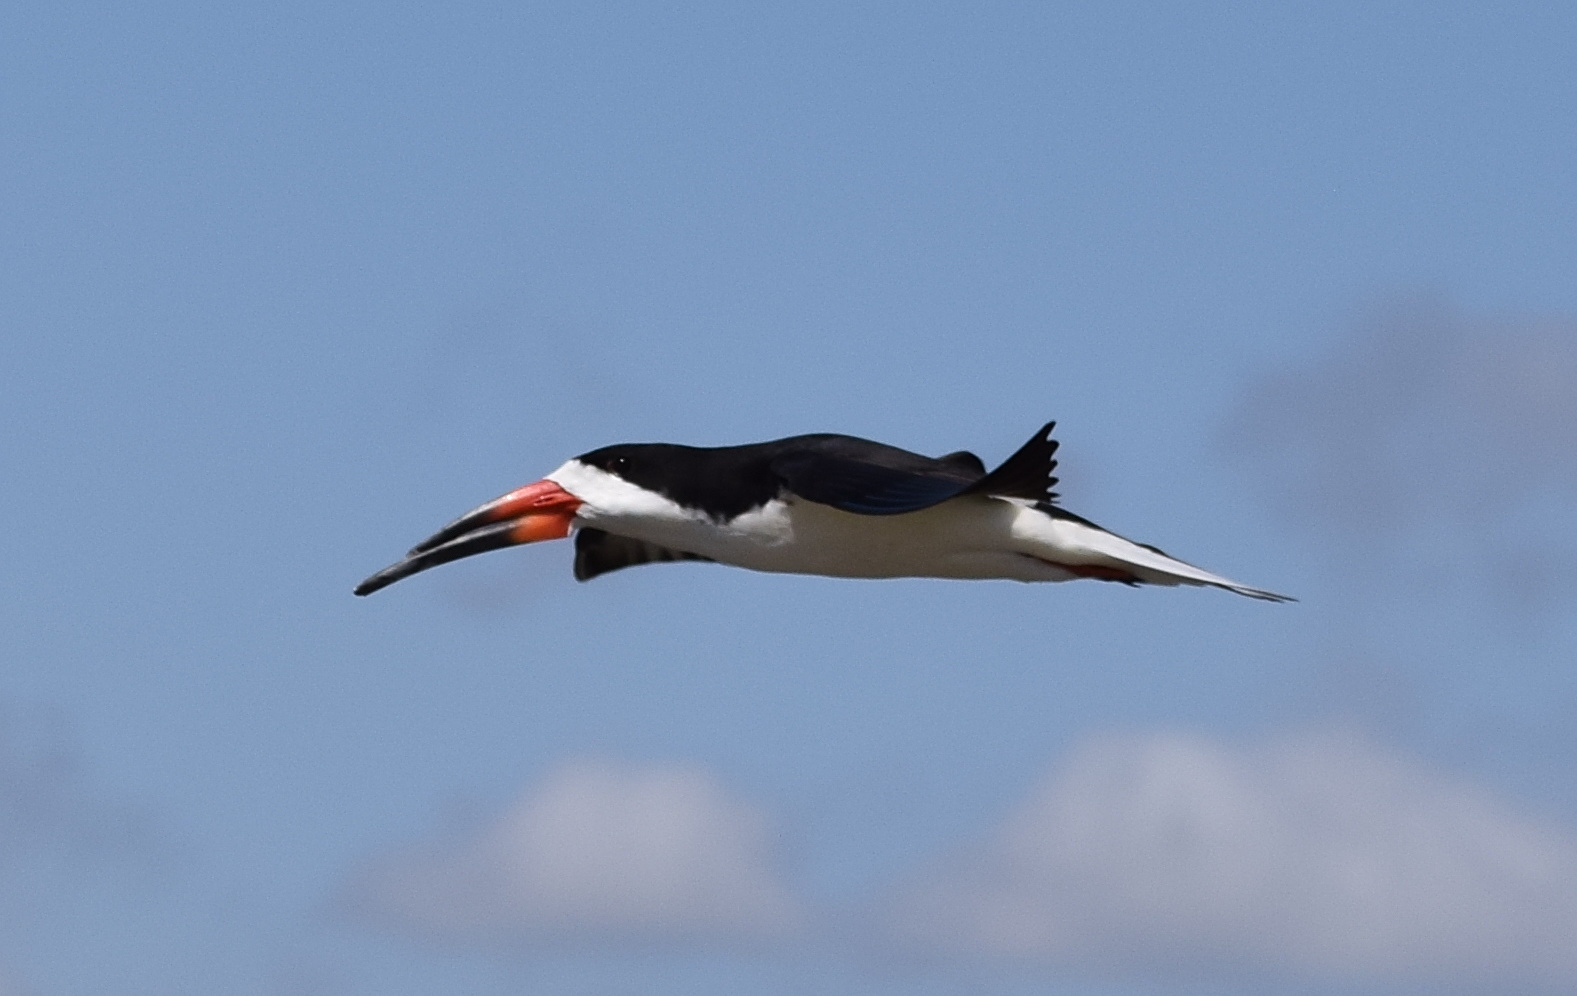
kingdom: Animalia
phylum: Chordata
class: Aves
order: Charadriiformes
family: Laridae
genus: Rynchops
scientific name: Rynchops niger
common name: Black skimmer
